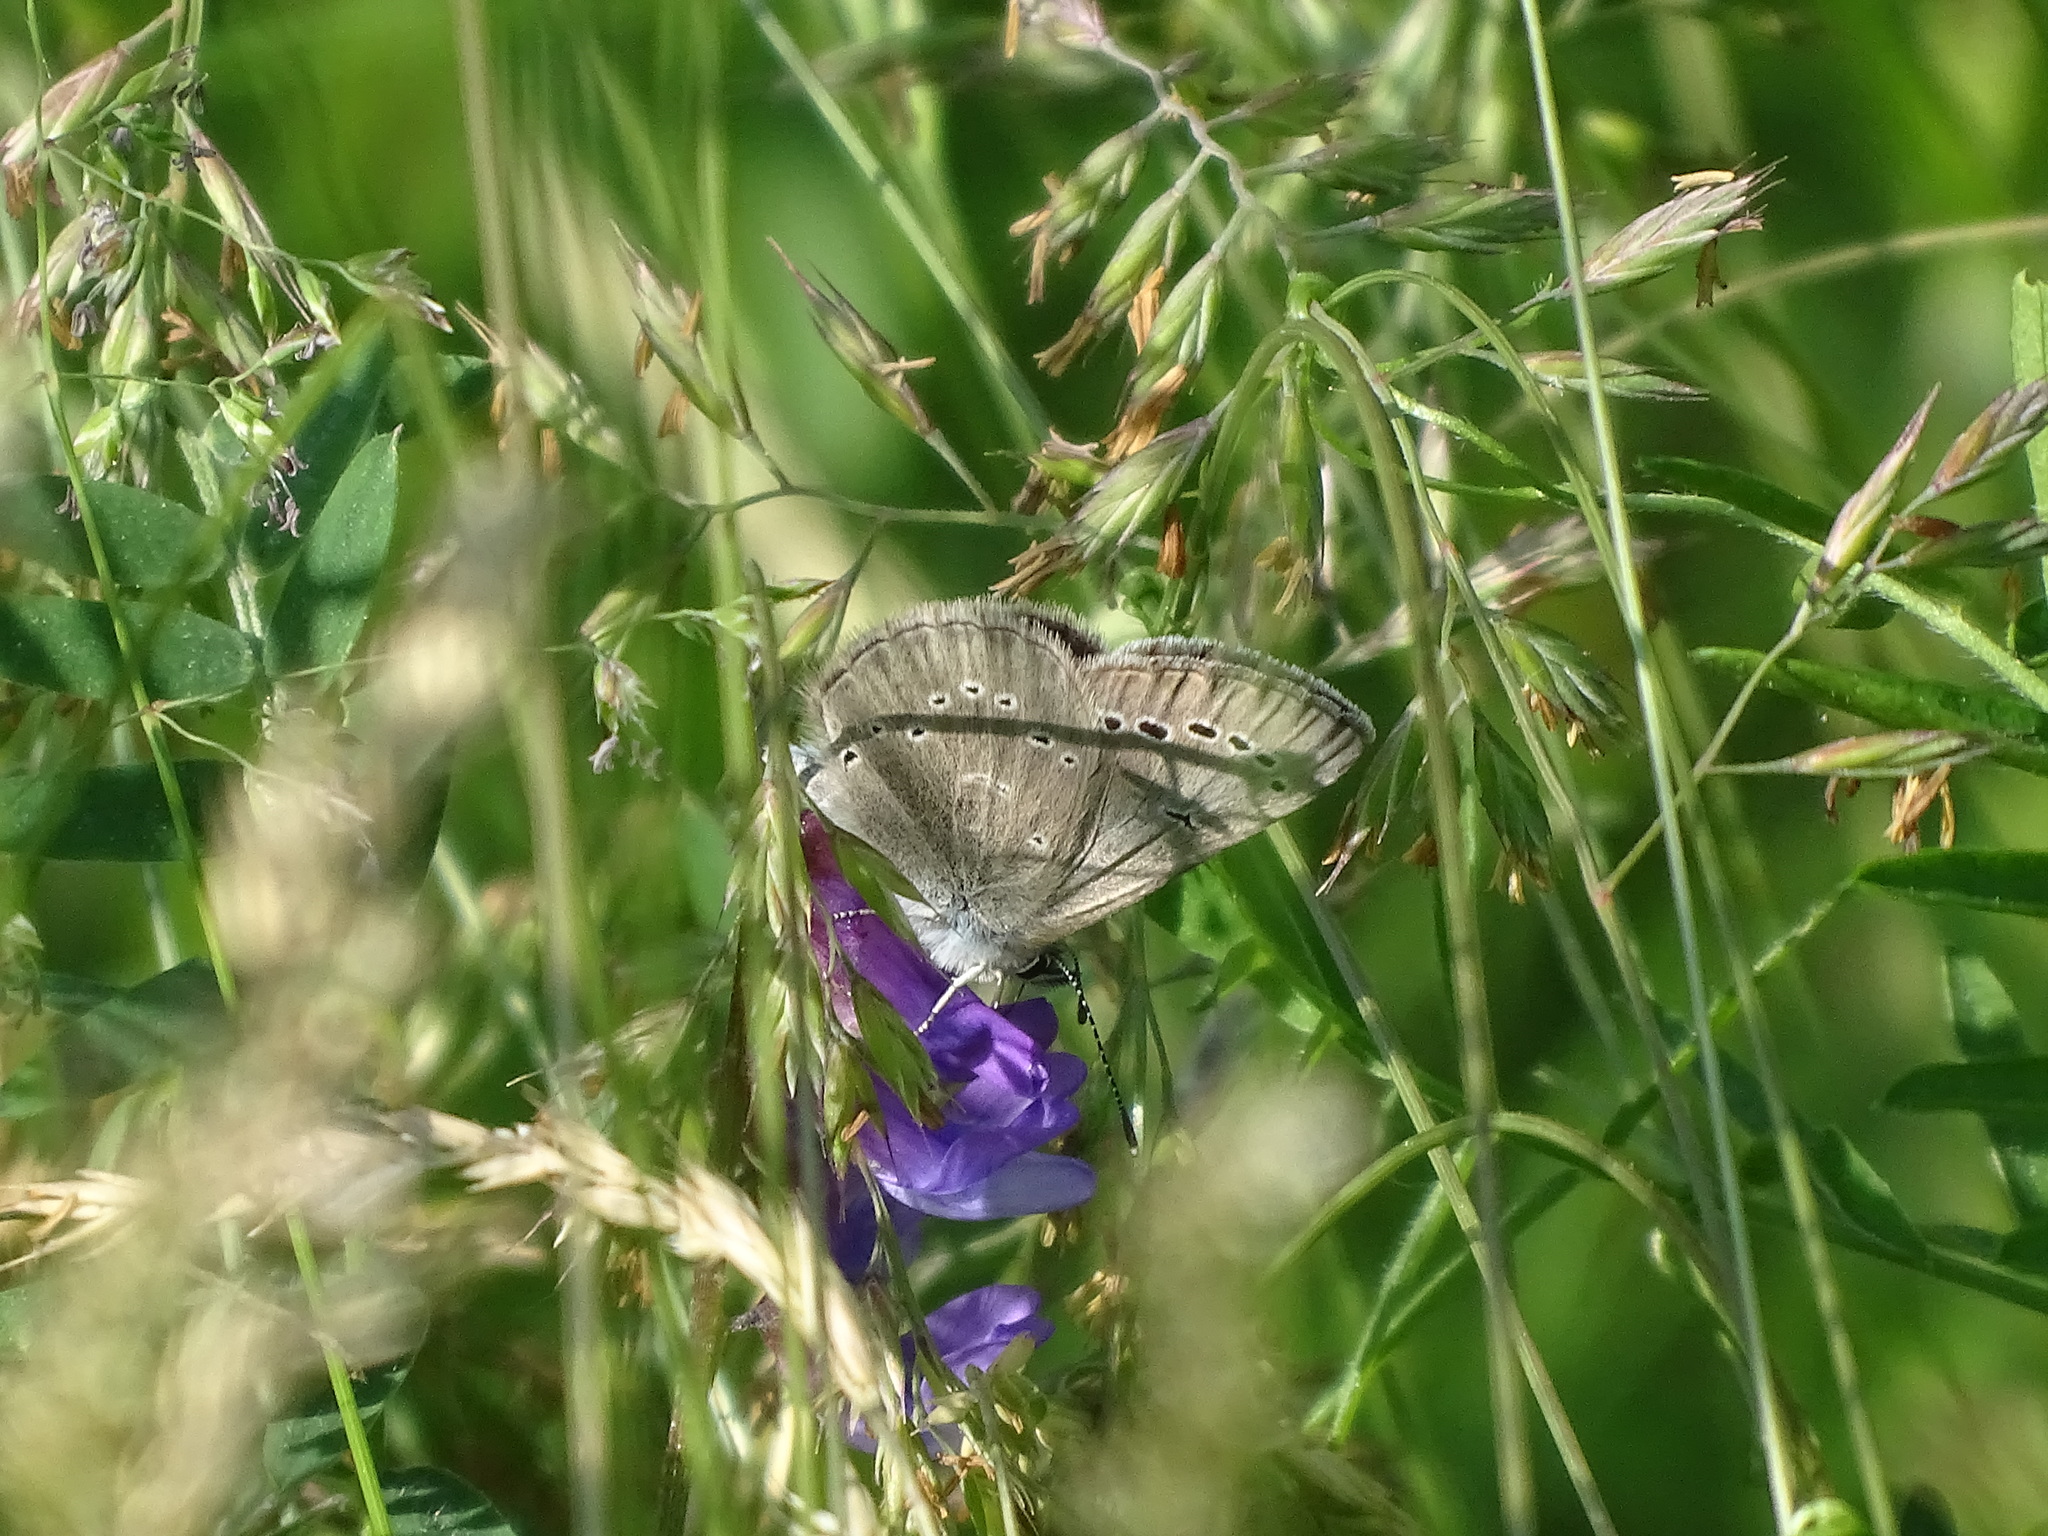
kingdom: Animalia
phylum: Arthropoda
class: Insecta
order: Lepidoptera
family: Lycaenidae
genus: Glaucopsyche
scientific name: Glaucopsyche lygdamus
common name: Silvery blue
